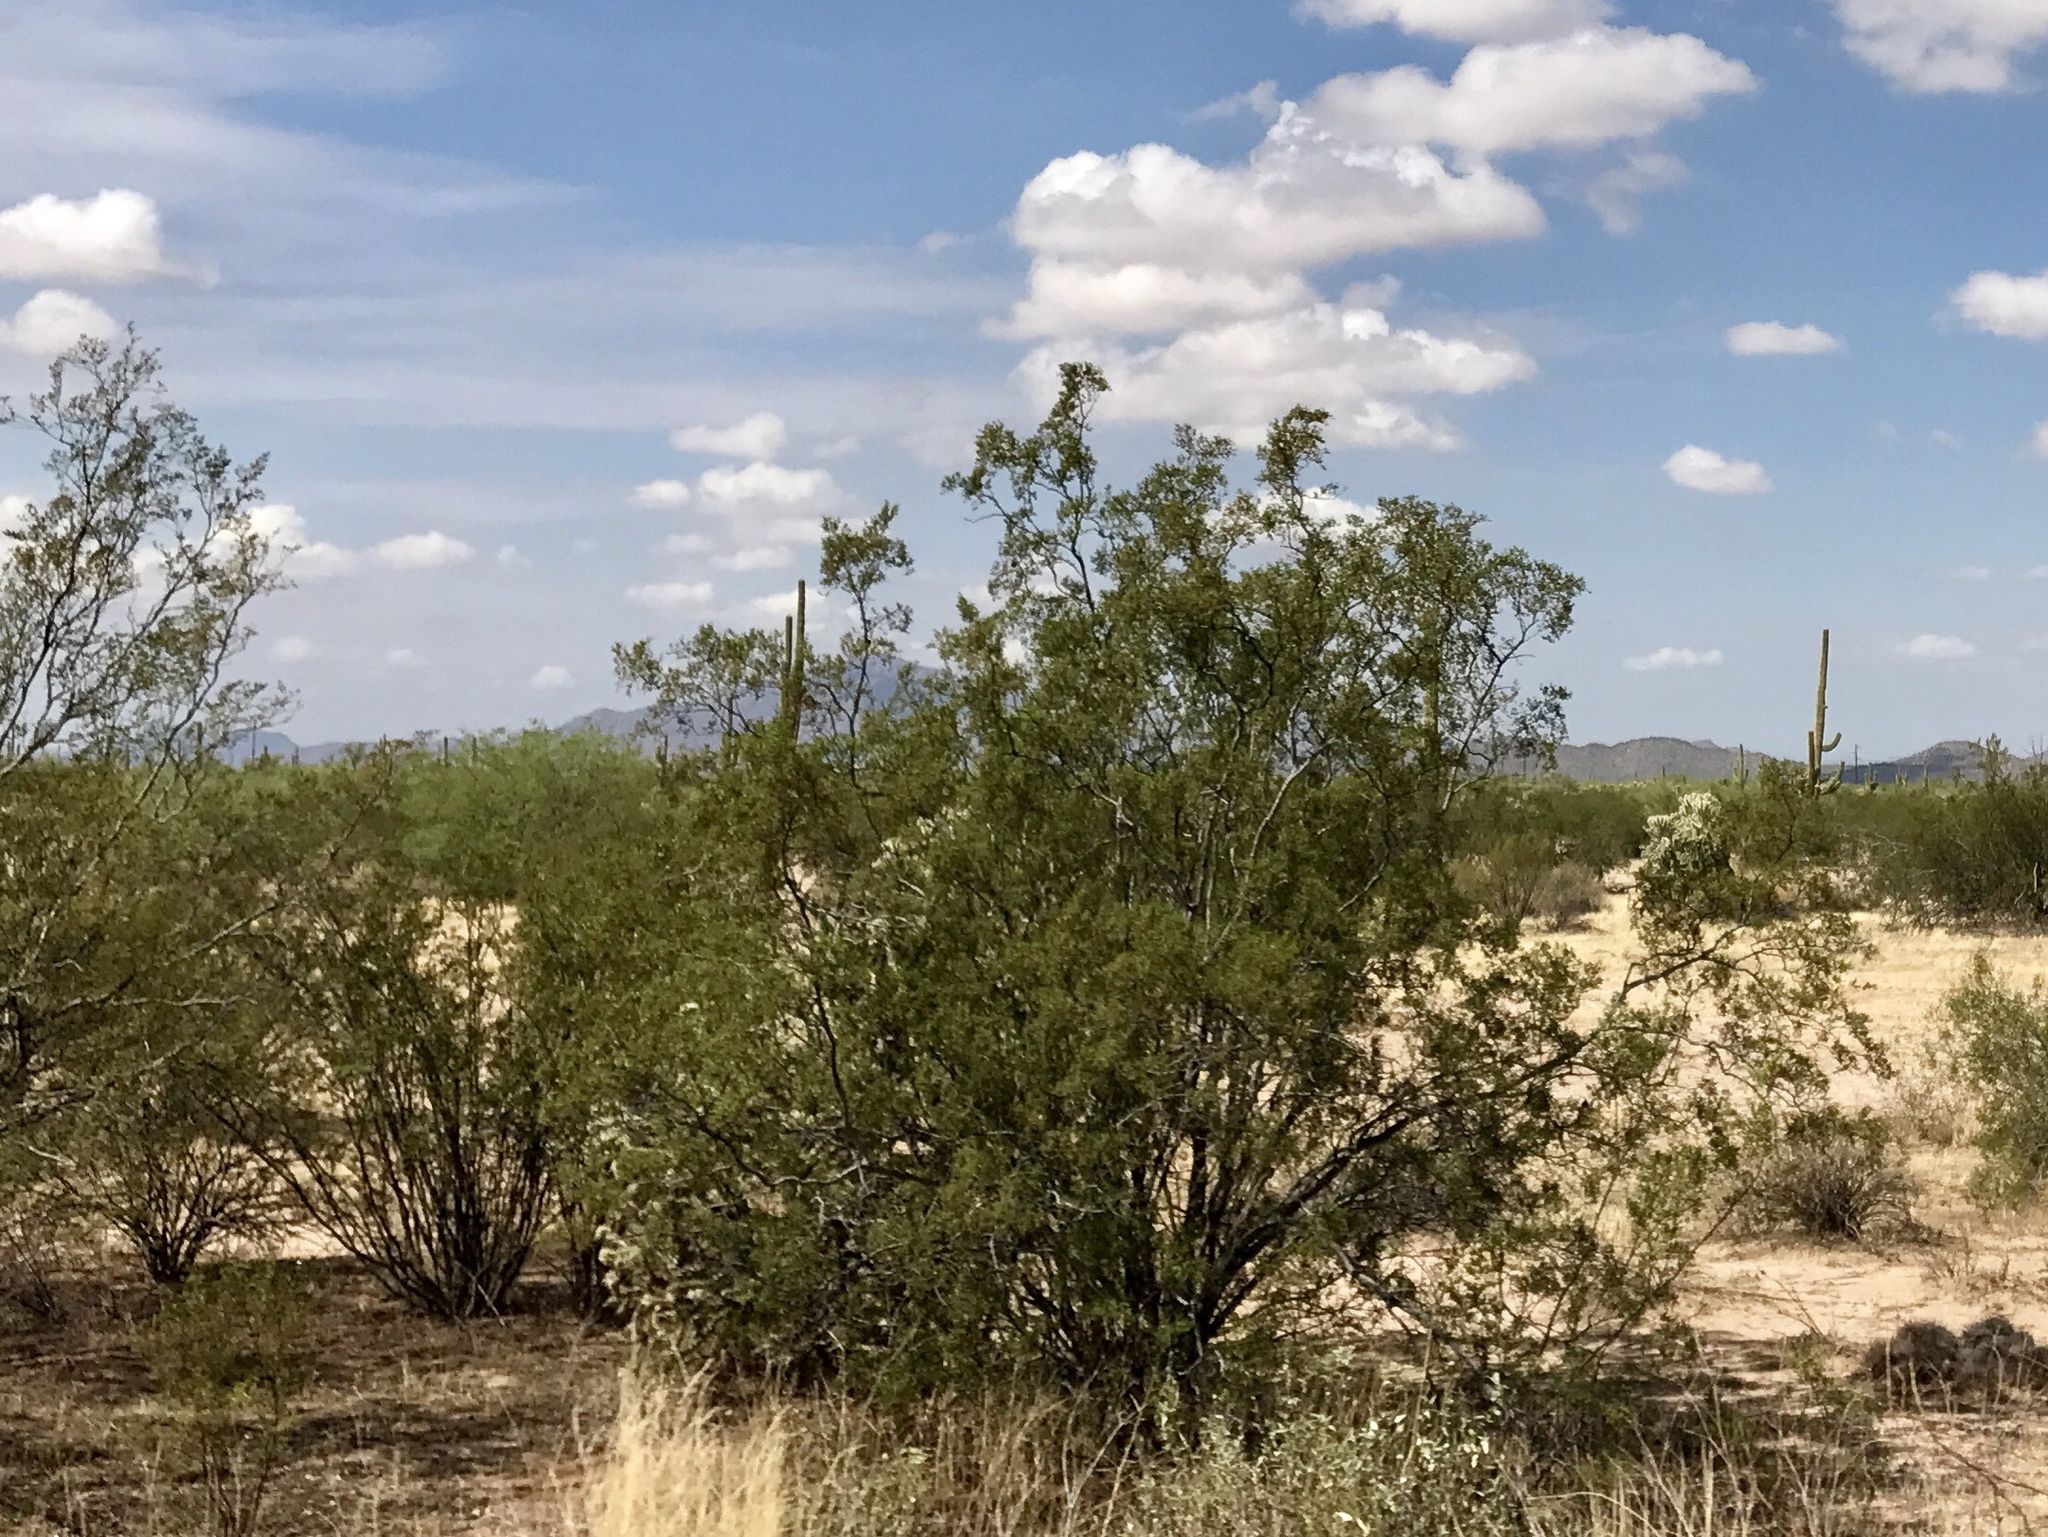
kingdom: Plantae
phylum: Tracheophyta
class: Magnoliopsida
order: Zygophyllales
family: Zygophyllaceae
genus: Larrea
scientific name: Larrea tridentata
